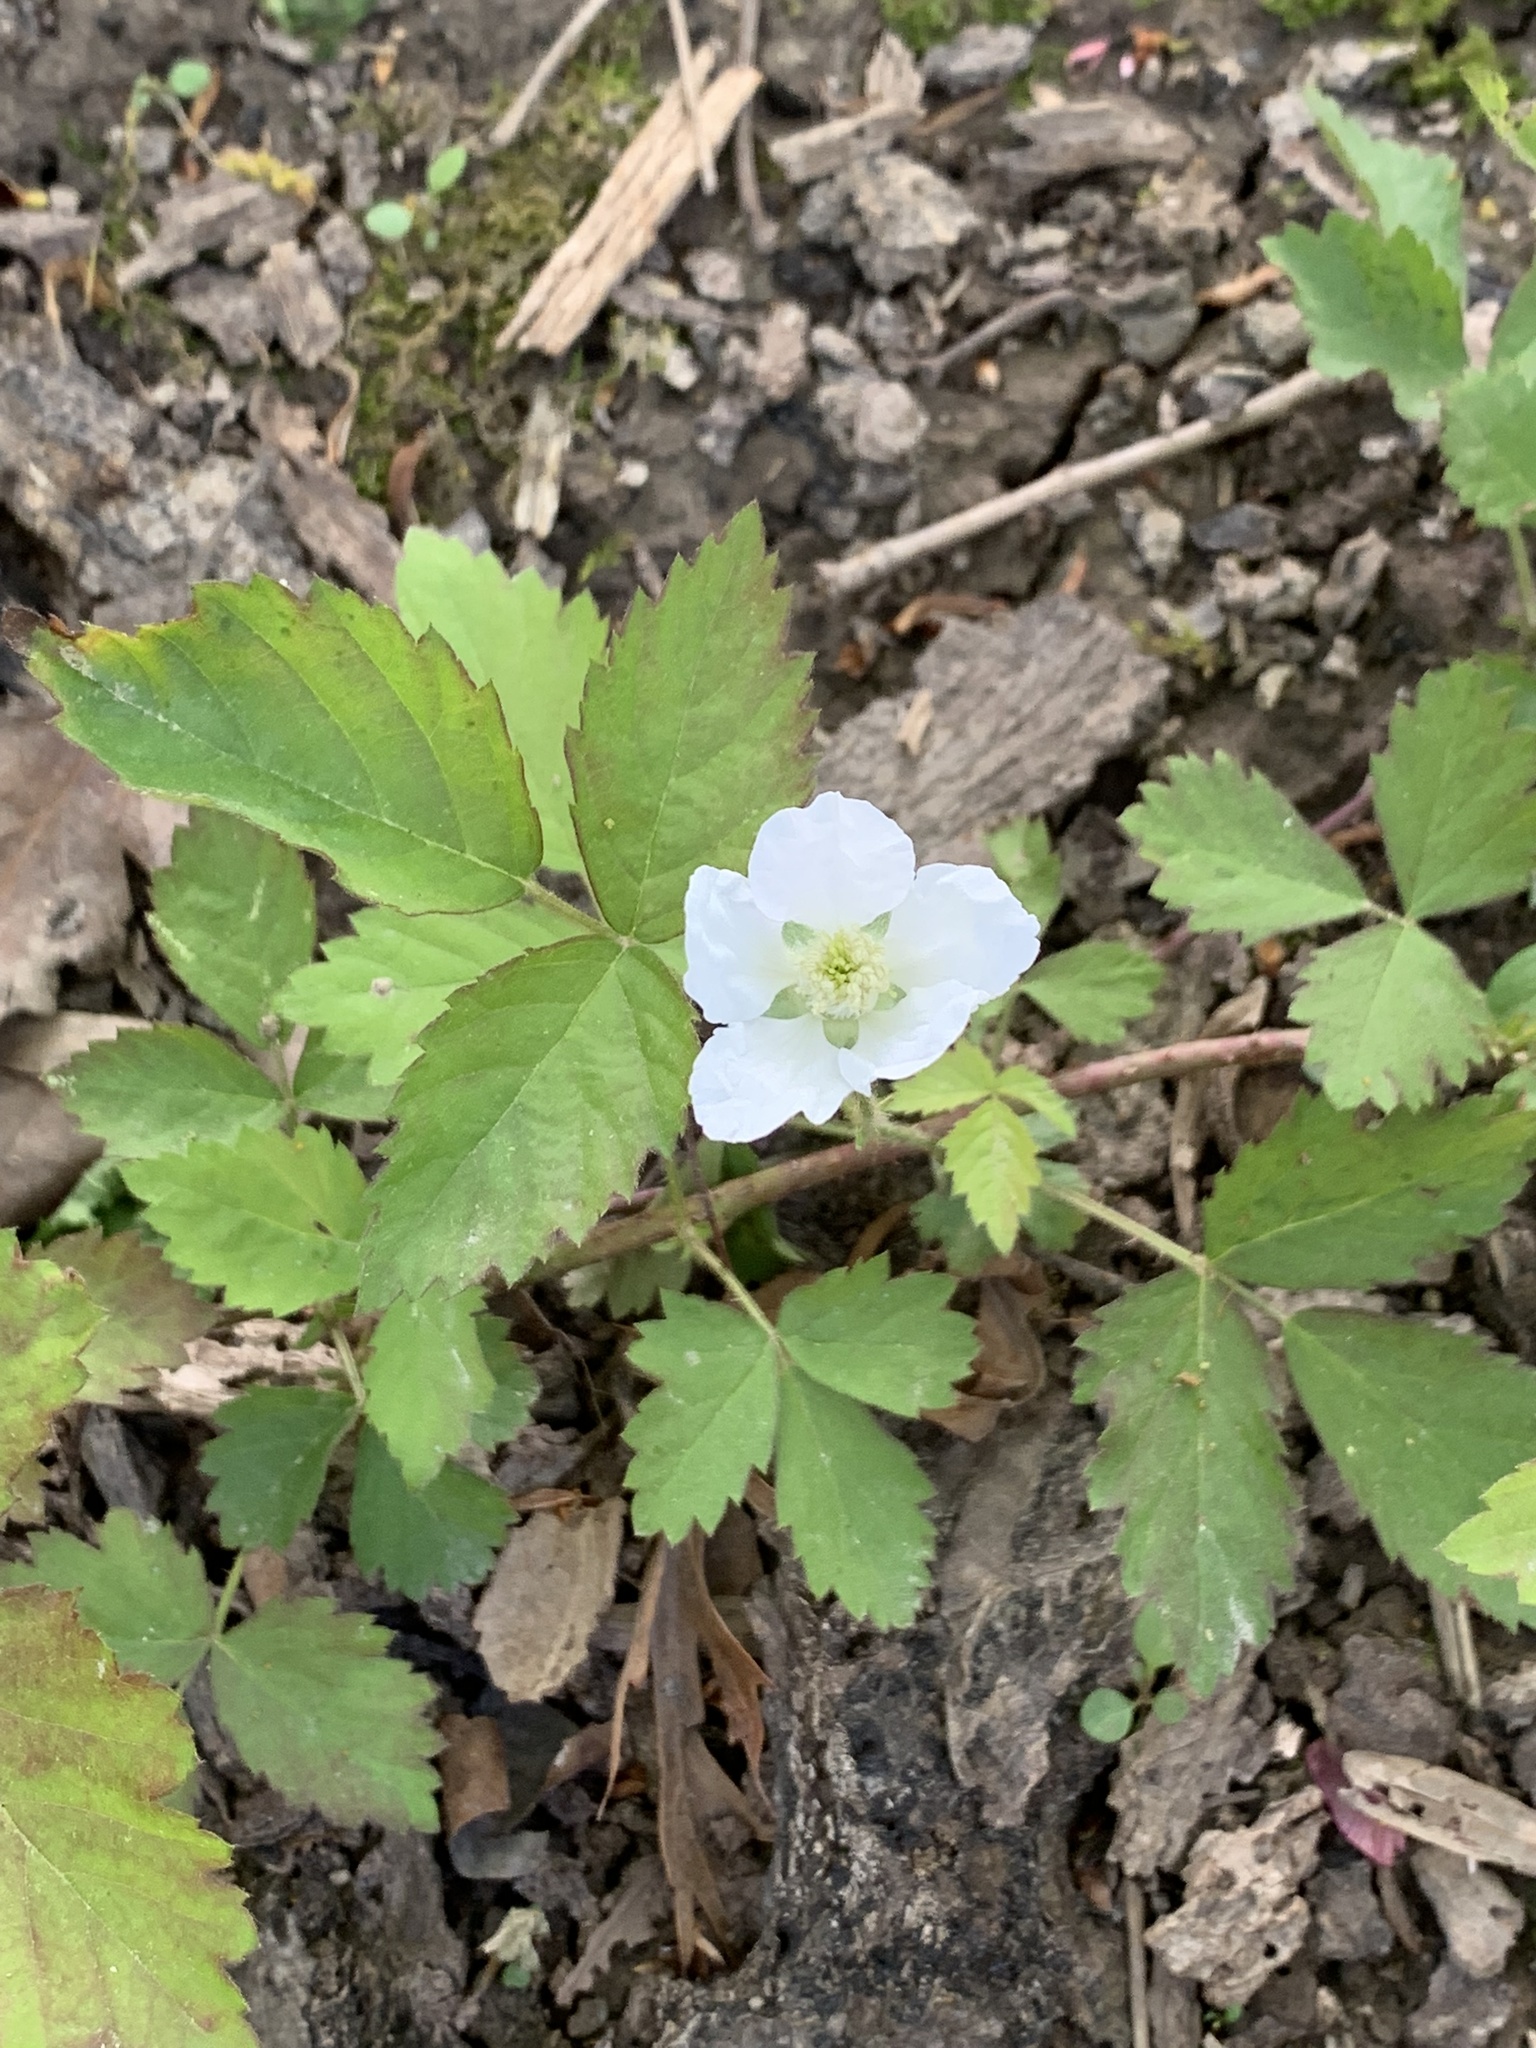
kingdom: Plantae
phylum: Tracheophyta
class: Magnoliopsida
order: Rosales
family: Rosaceae
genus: Rubus
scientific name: Rubus flagellaris
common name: American dewberry
